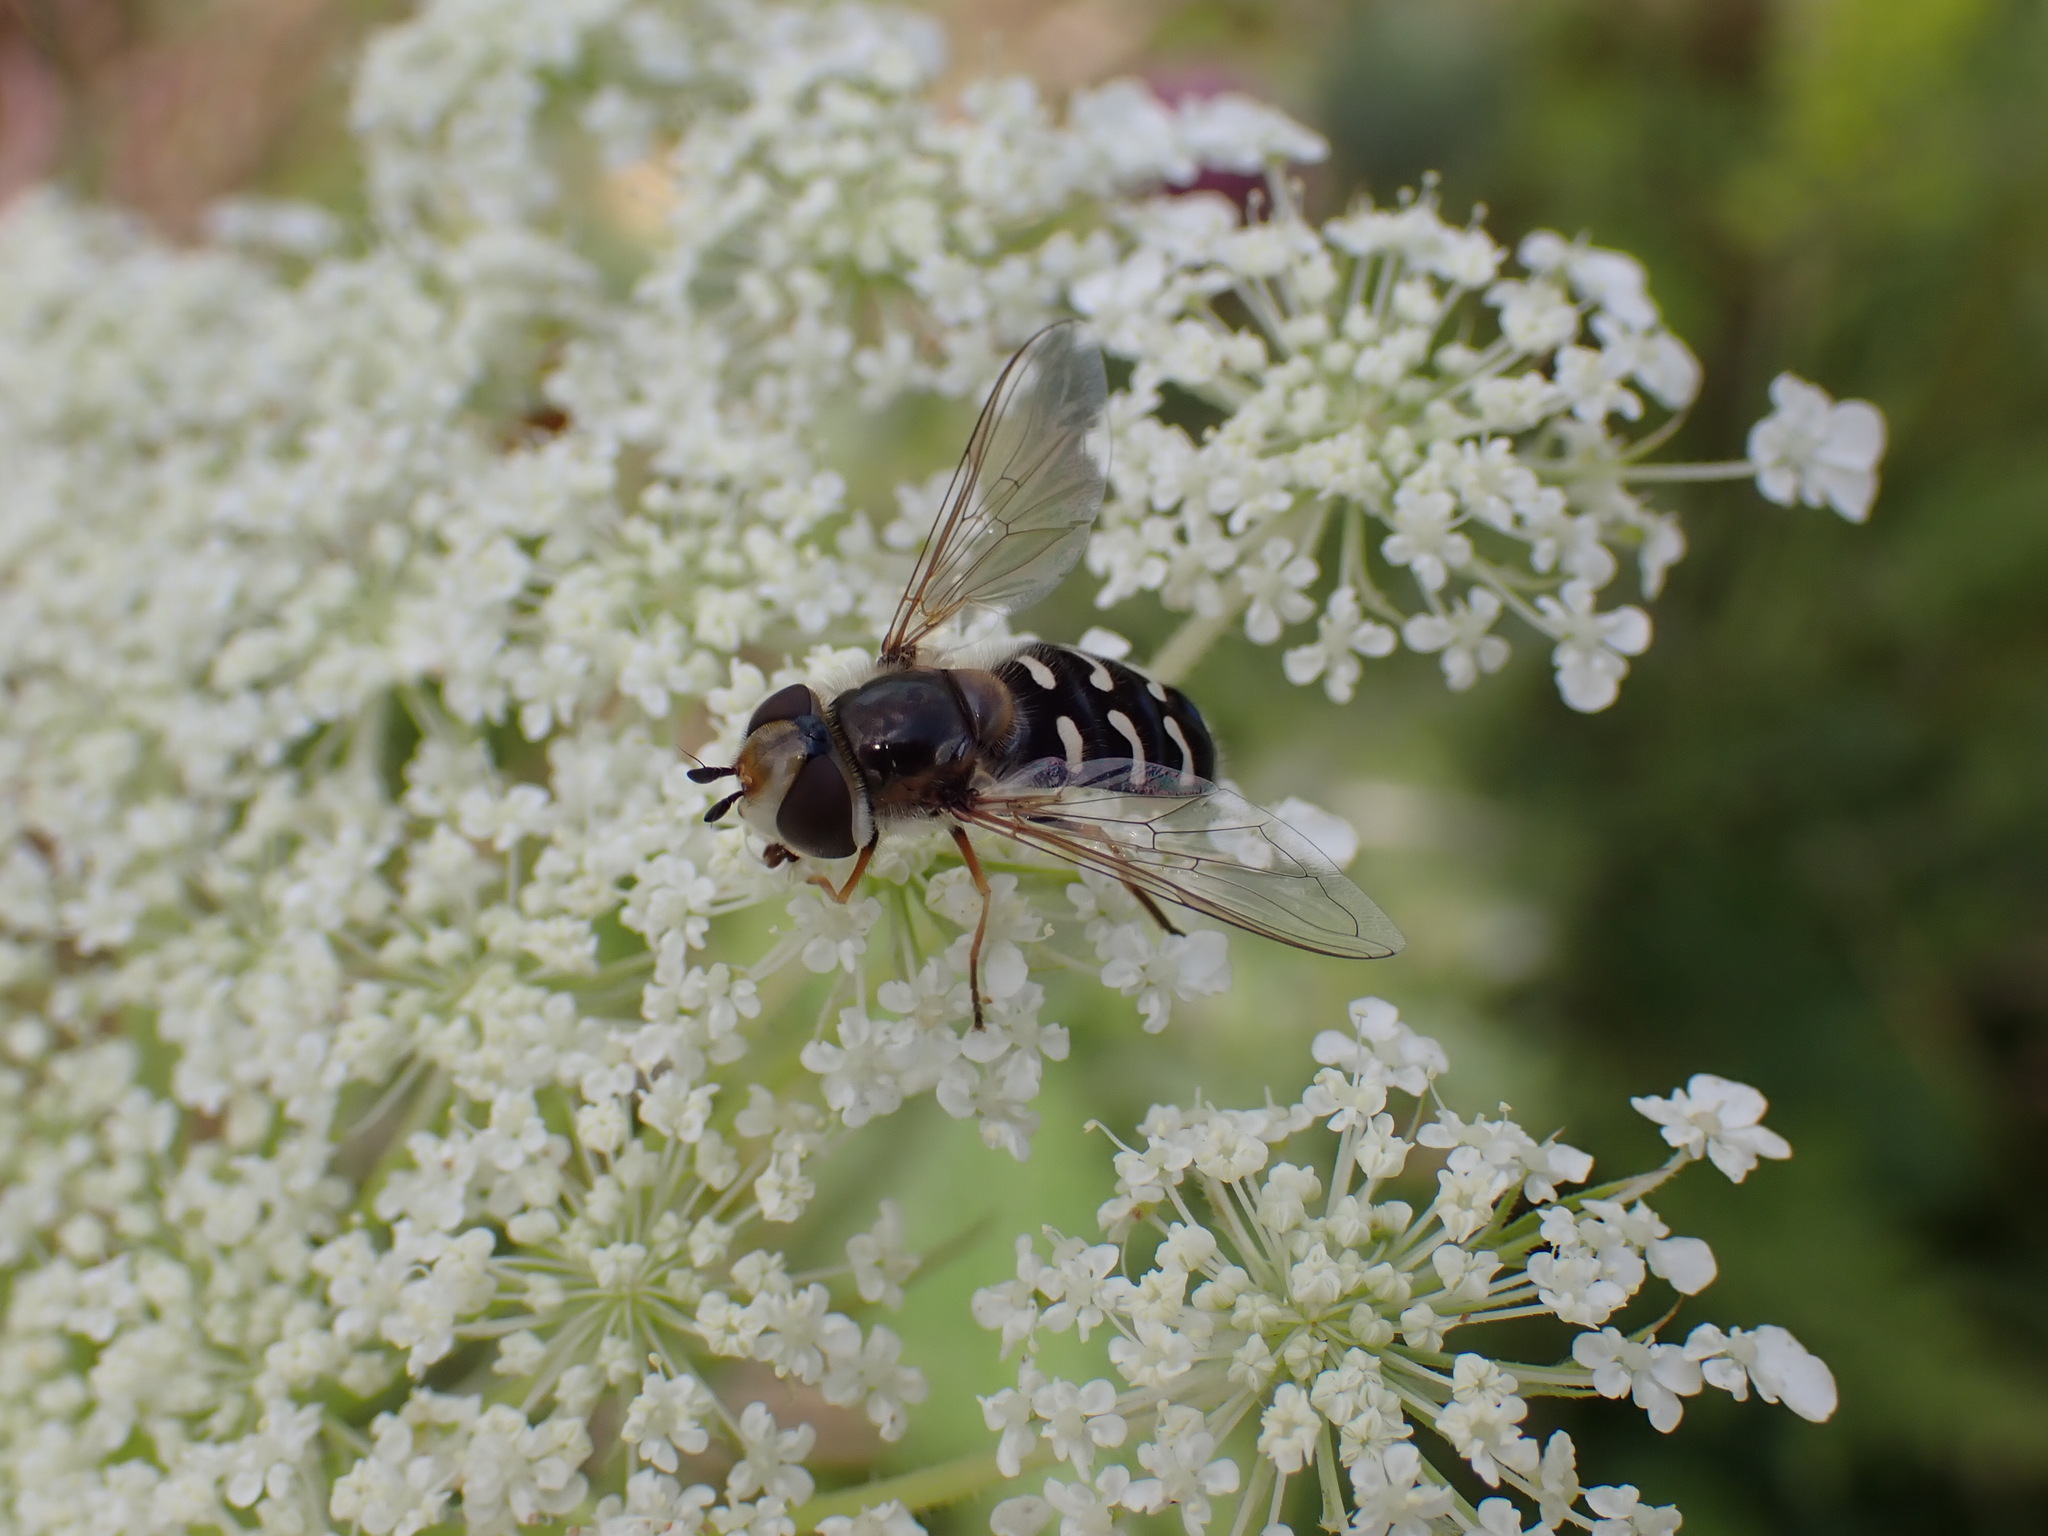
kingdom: Animalia
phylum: Arthropoda
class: Insecta
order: Diptera
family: Syrphidae
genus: Scaeva
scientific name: Scaeva pyrastri
